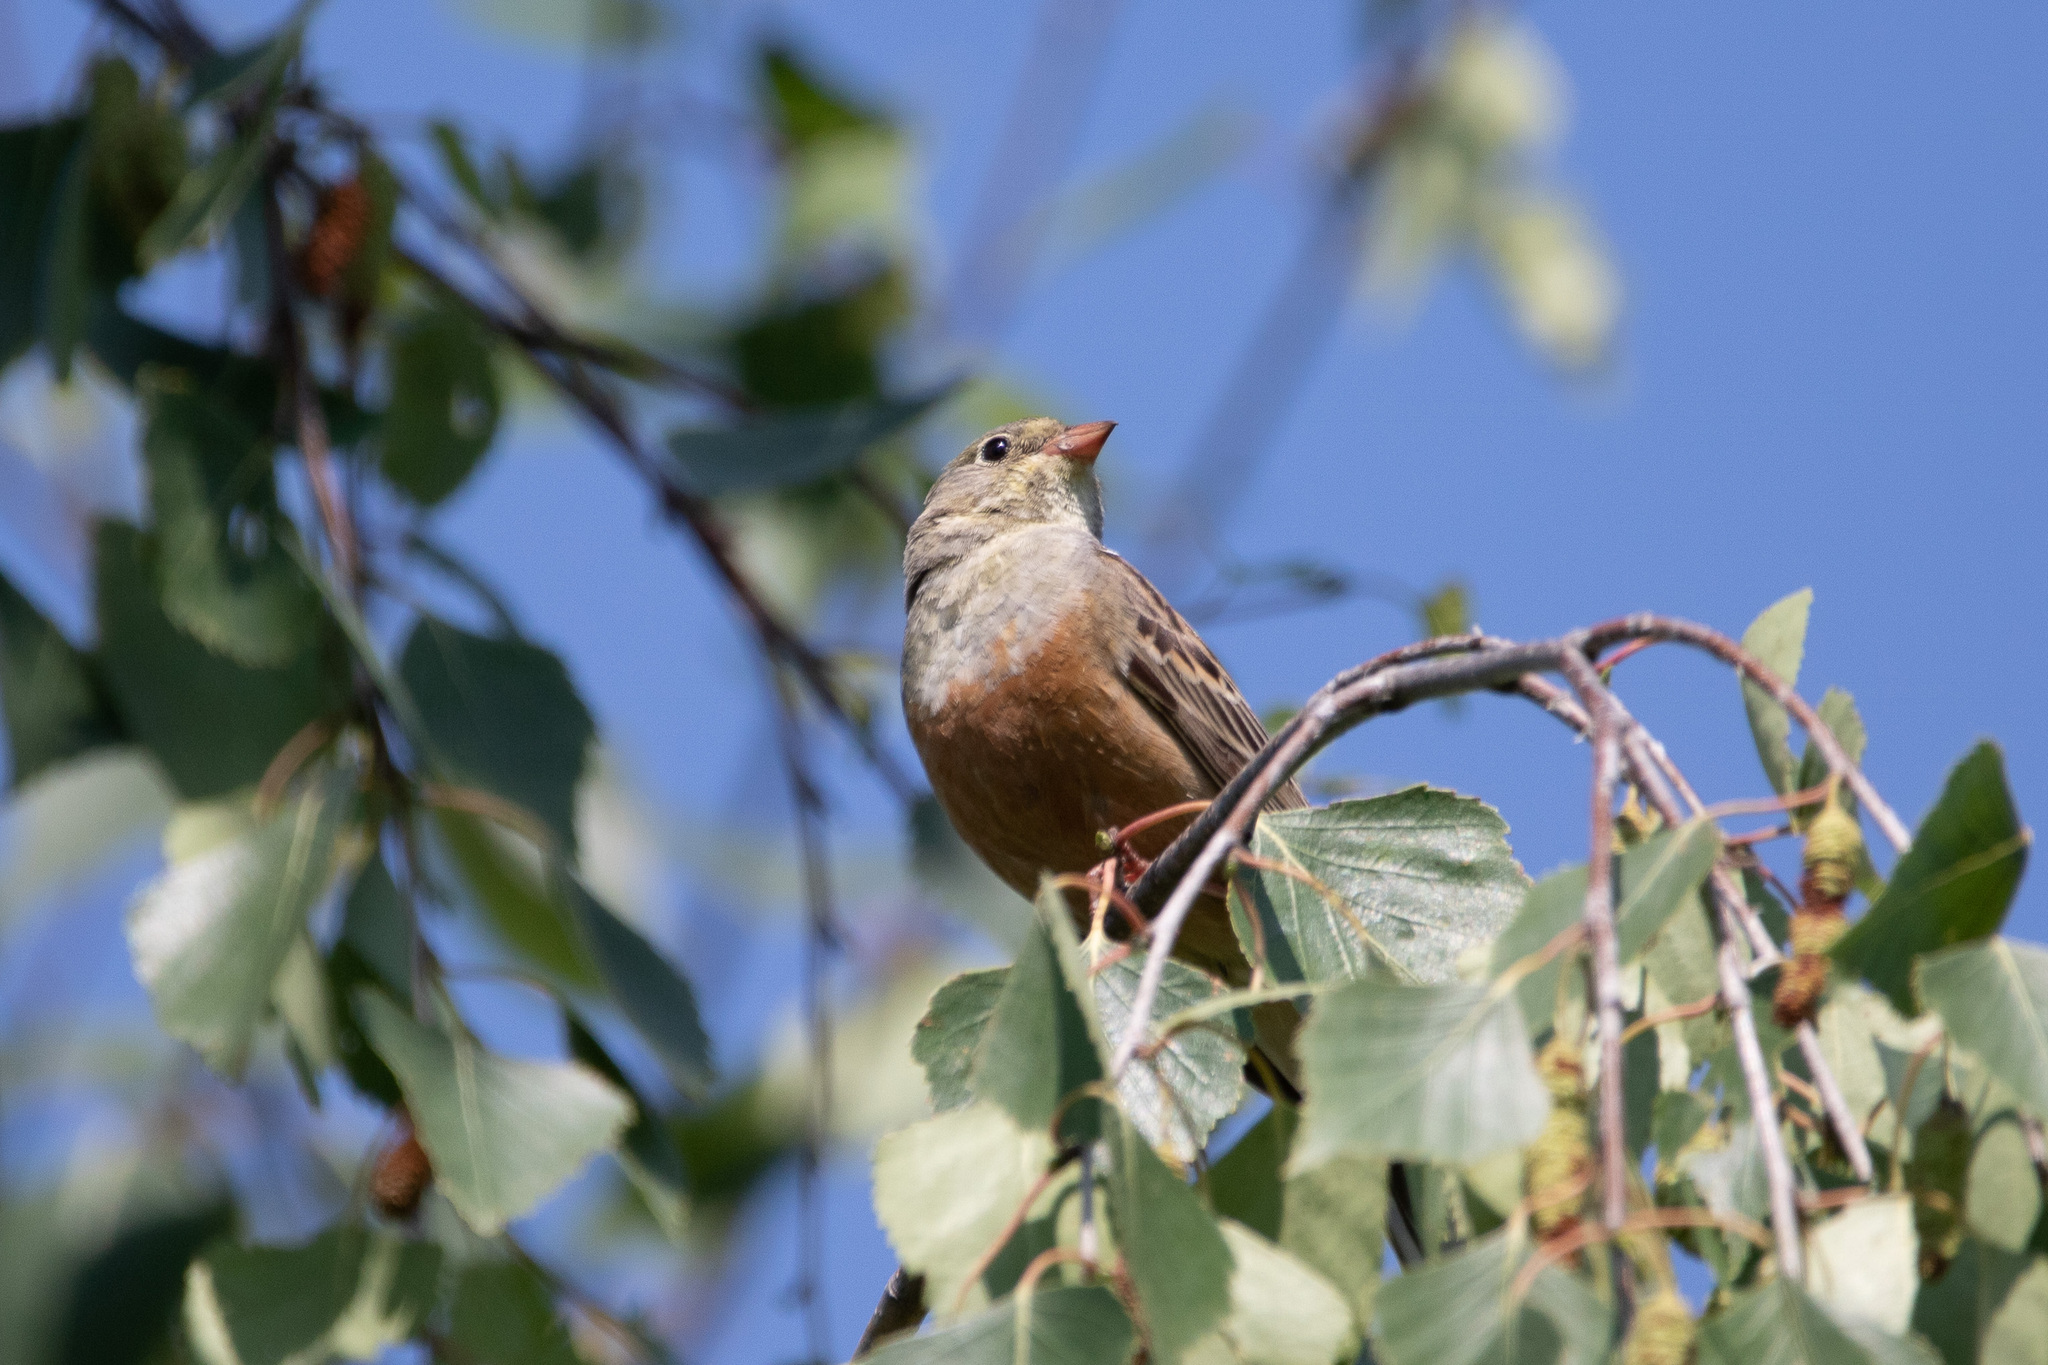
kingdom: Animalia
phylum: Chordata
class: Aves
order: Passeriformes
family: Emberizidae
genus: Emberiza
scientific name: Emberiza hortulana
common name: Ortolan bunting
